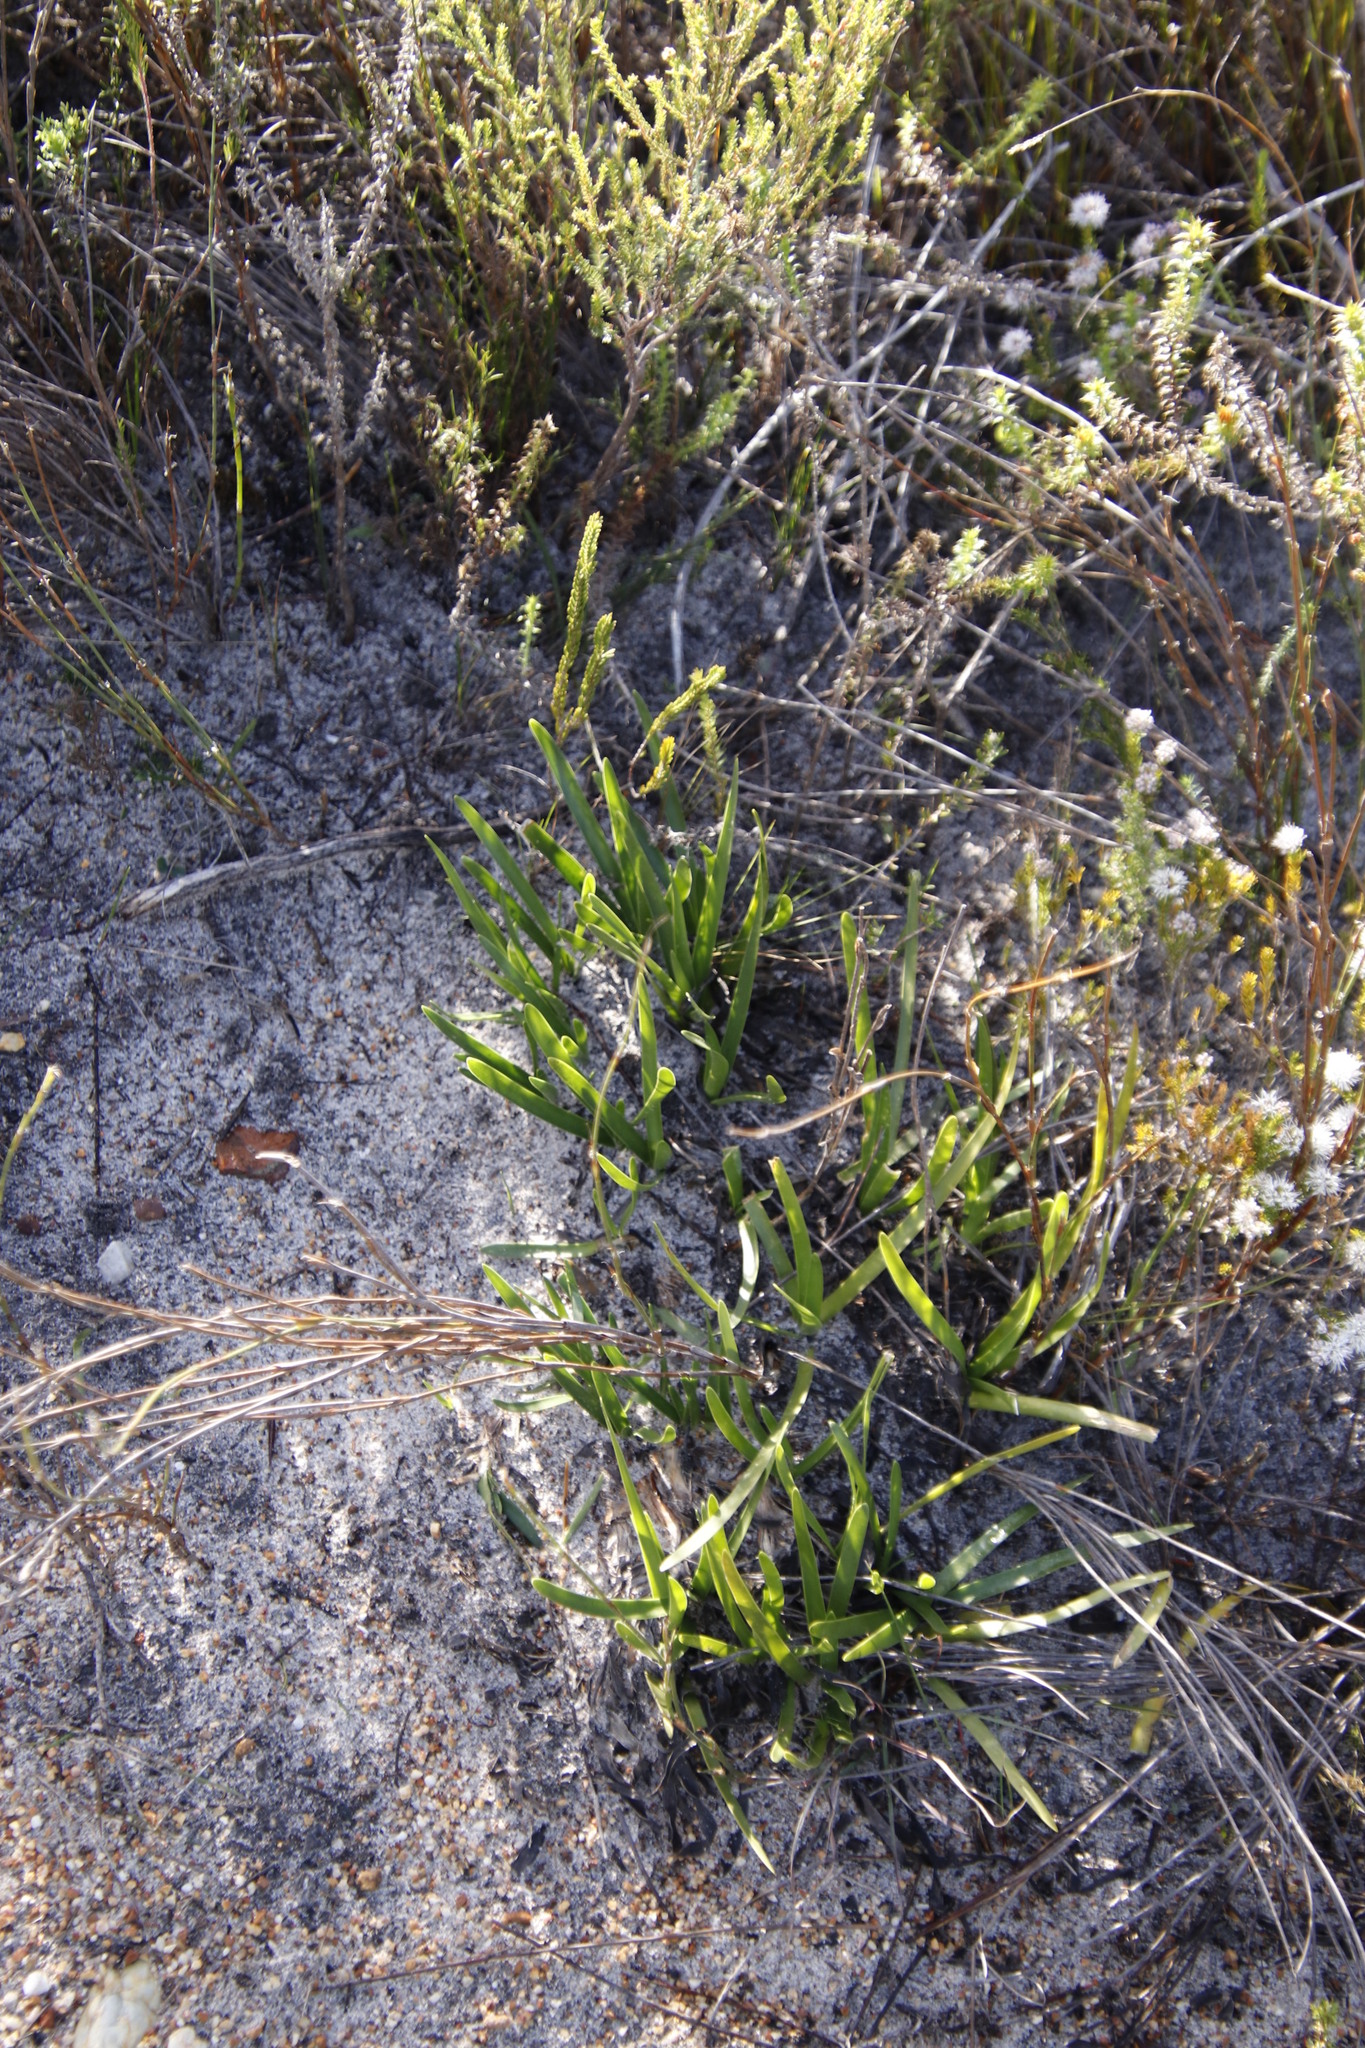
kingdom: Plantae
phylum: Tracheophyta
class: Liliopsida
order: Asparagales
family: Amaryllidaceae
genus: Agapanthus
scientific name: Agapanthus africanus
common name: Lily-of-the-nile
